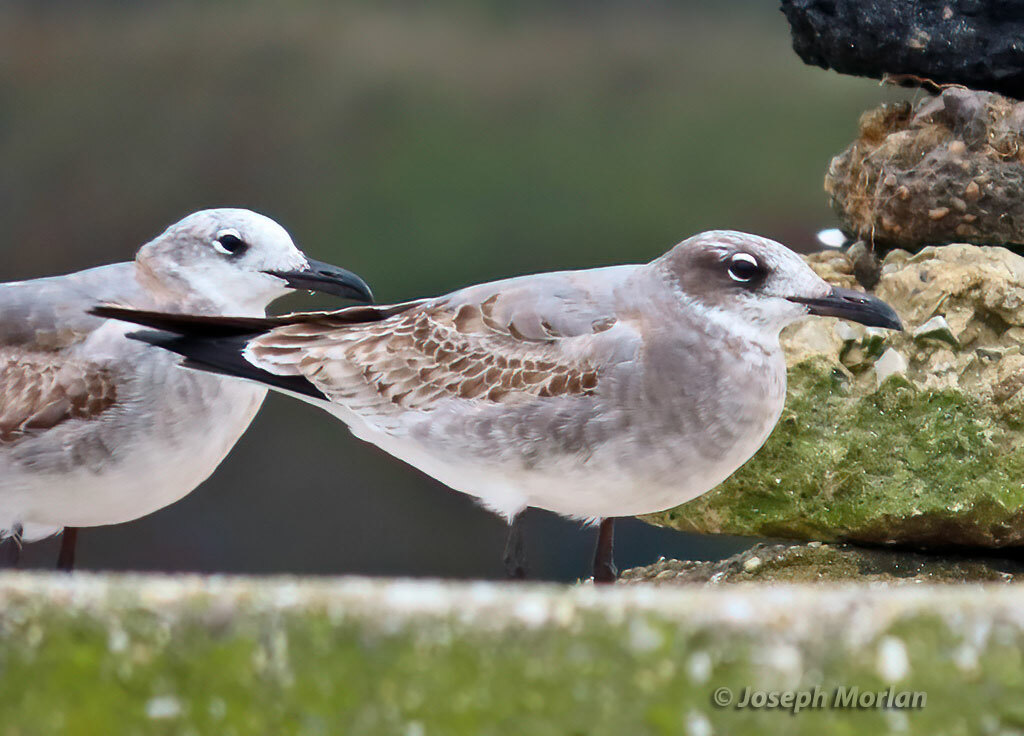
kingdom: Animalia
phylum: Chordata
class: Aves
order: Charadriiformes
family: Laridae
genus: Leucophaeus
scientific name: Leucophaeus atricilla
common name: Laughing gull
